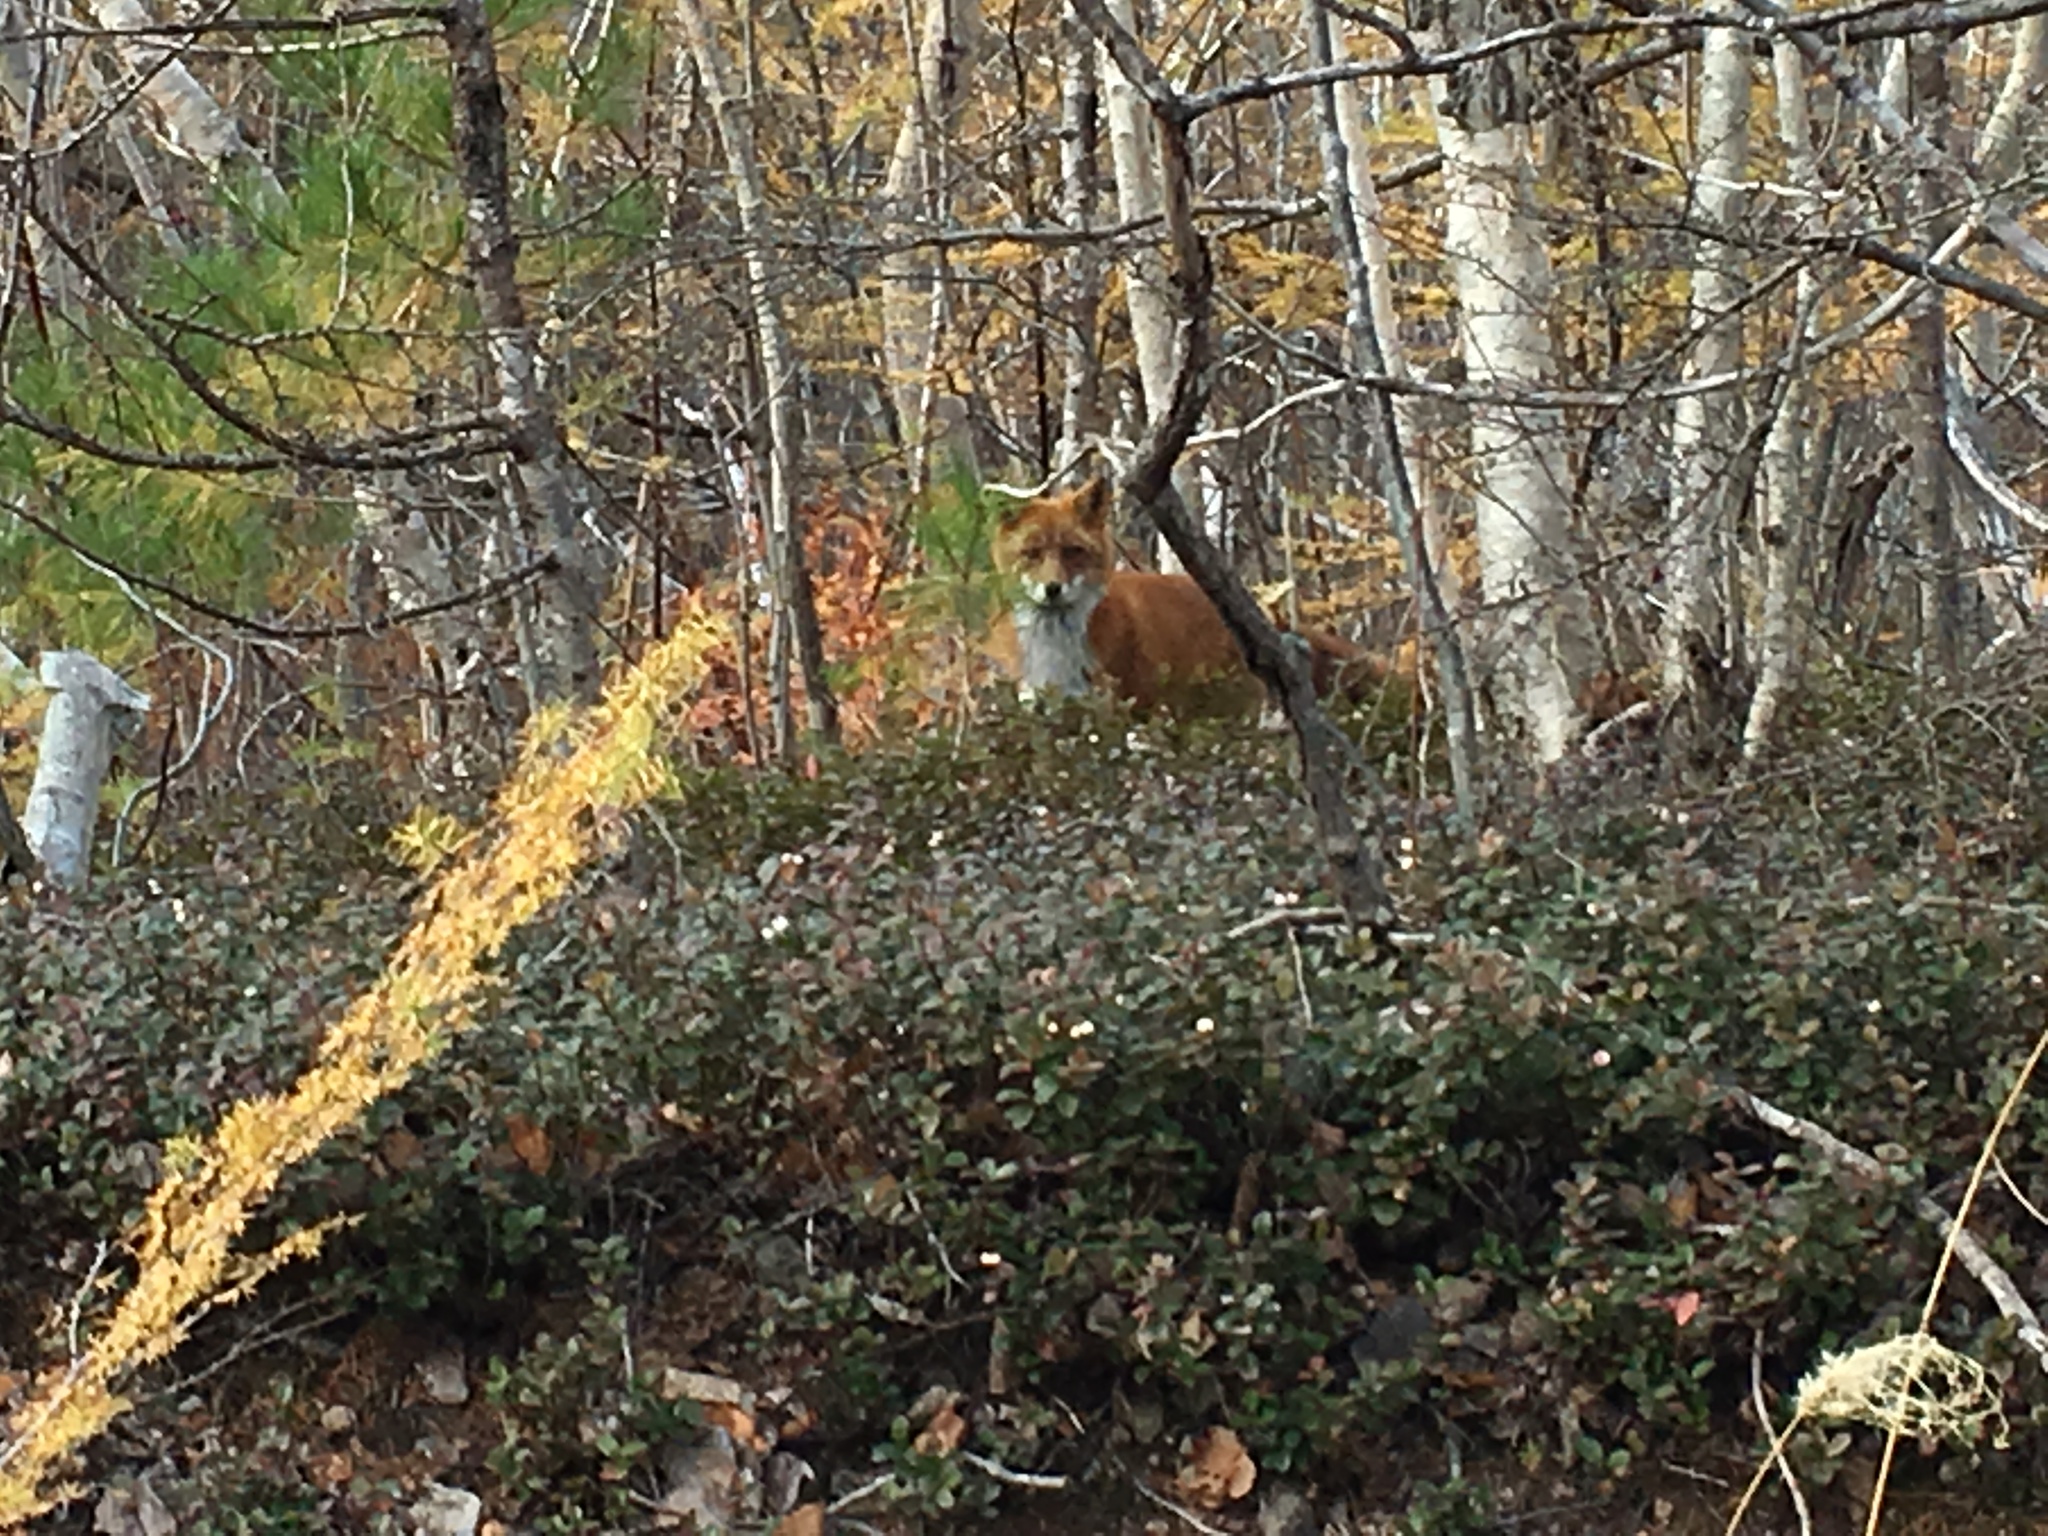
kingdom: Animalia
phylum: Chordata
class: Mammalia
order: Carnivora
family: Canidae
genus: Vulpes
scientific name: Vulpes vulpes
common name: Red fox
